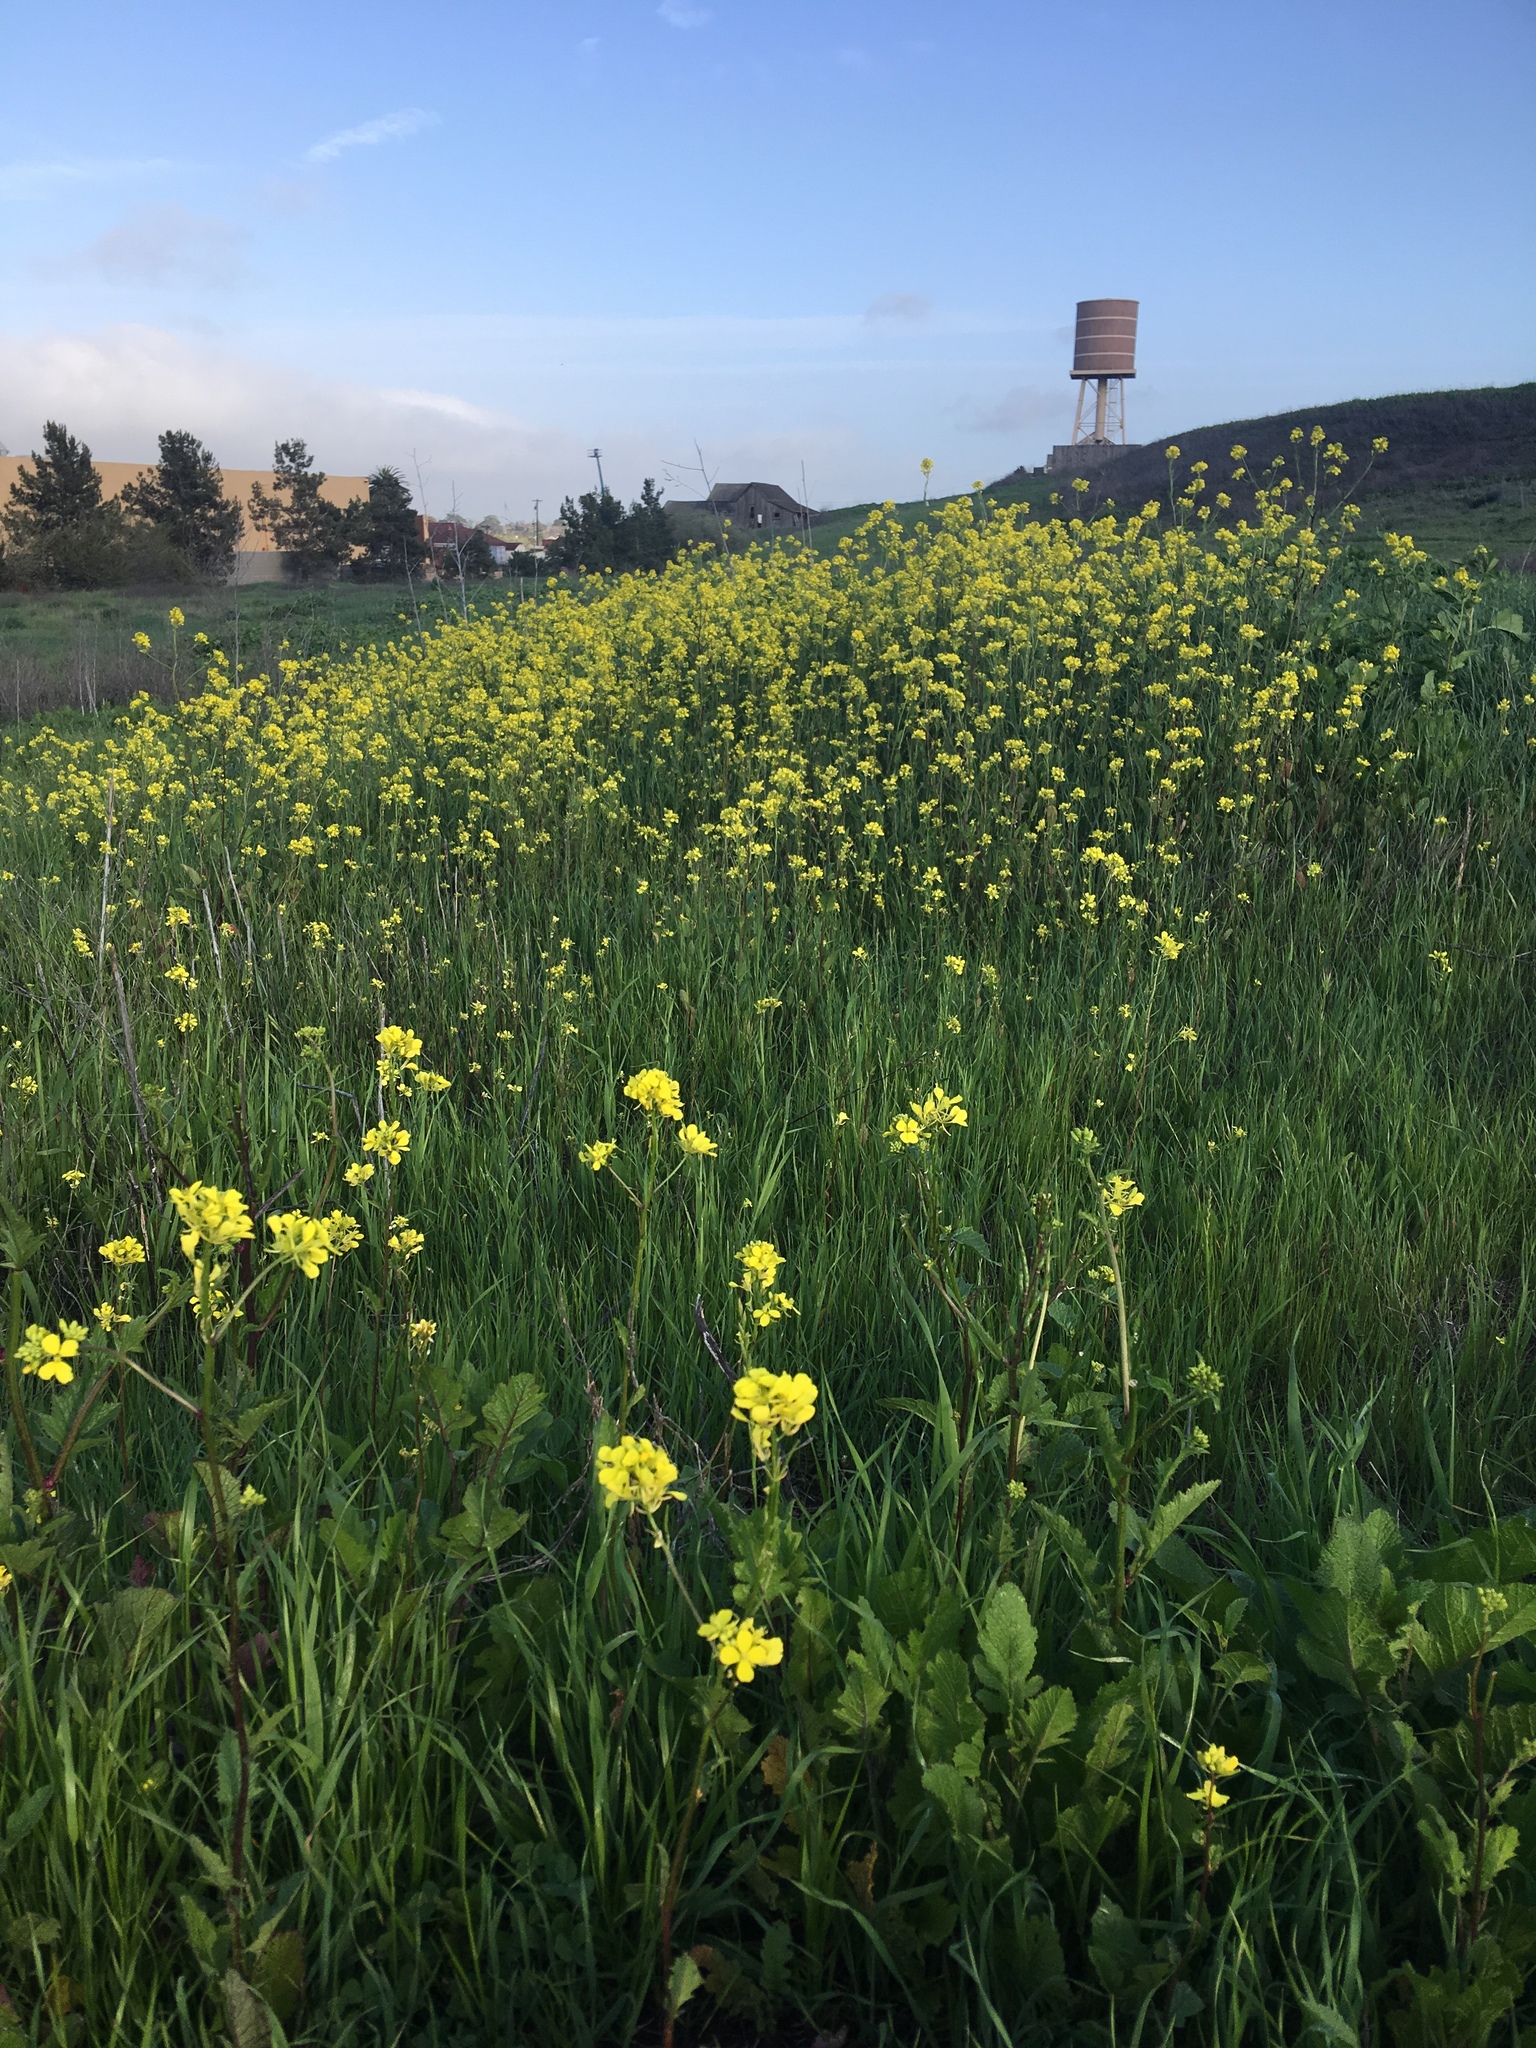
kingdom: Plantae
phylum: Tracheophyta
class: Magnoliopsida
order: Brassicales
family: Brassicaceae
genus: Brassica
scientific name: Brassica nigra
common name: Black mustard
